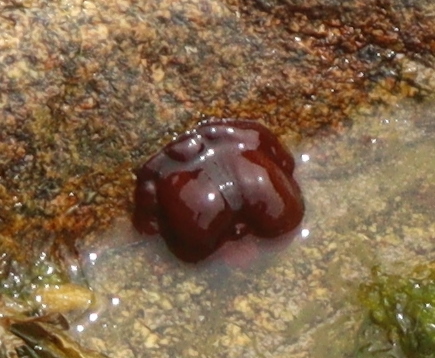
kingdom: Animalia
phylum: Cnidaria
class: Anthozoa
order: Actiniaria
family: Actiniidae
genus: Actinia
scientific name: Actinia equina
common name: Beadlet anemone
